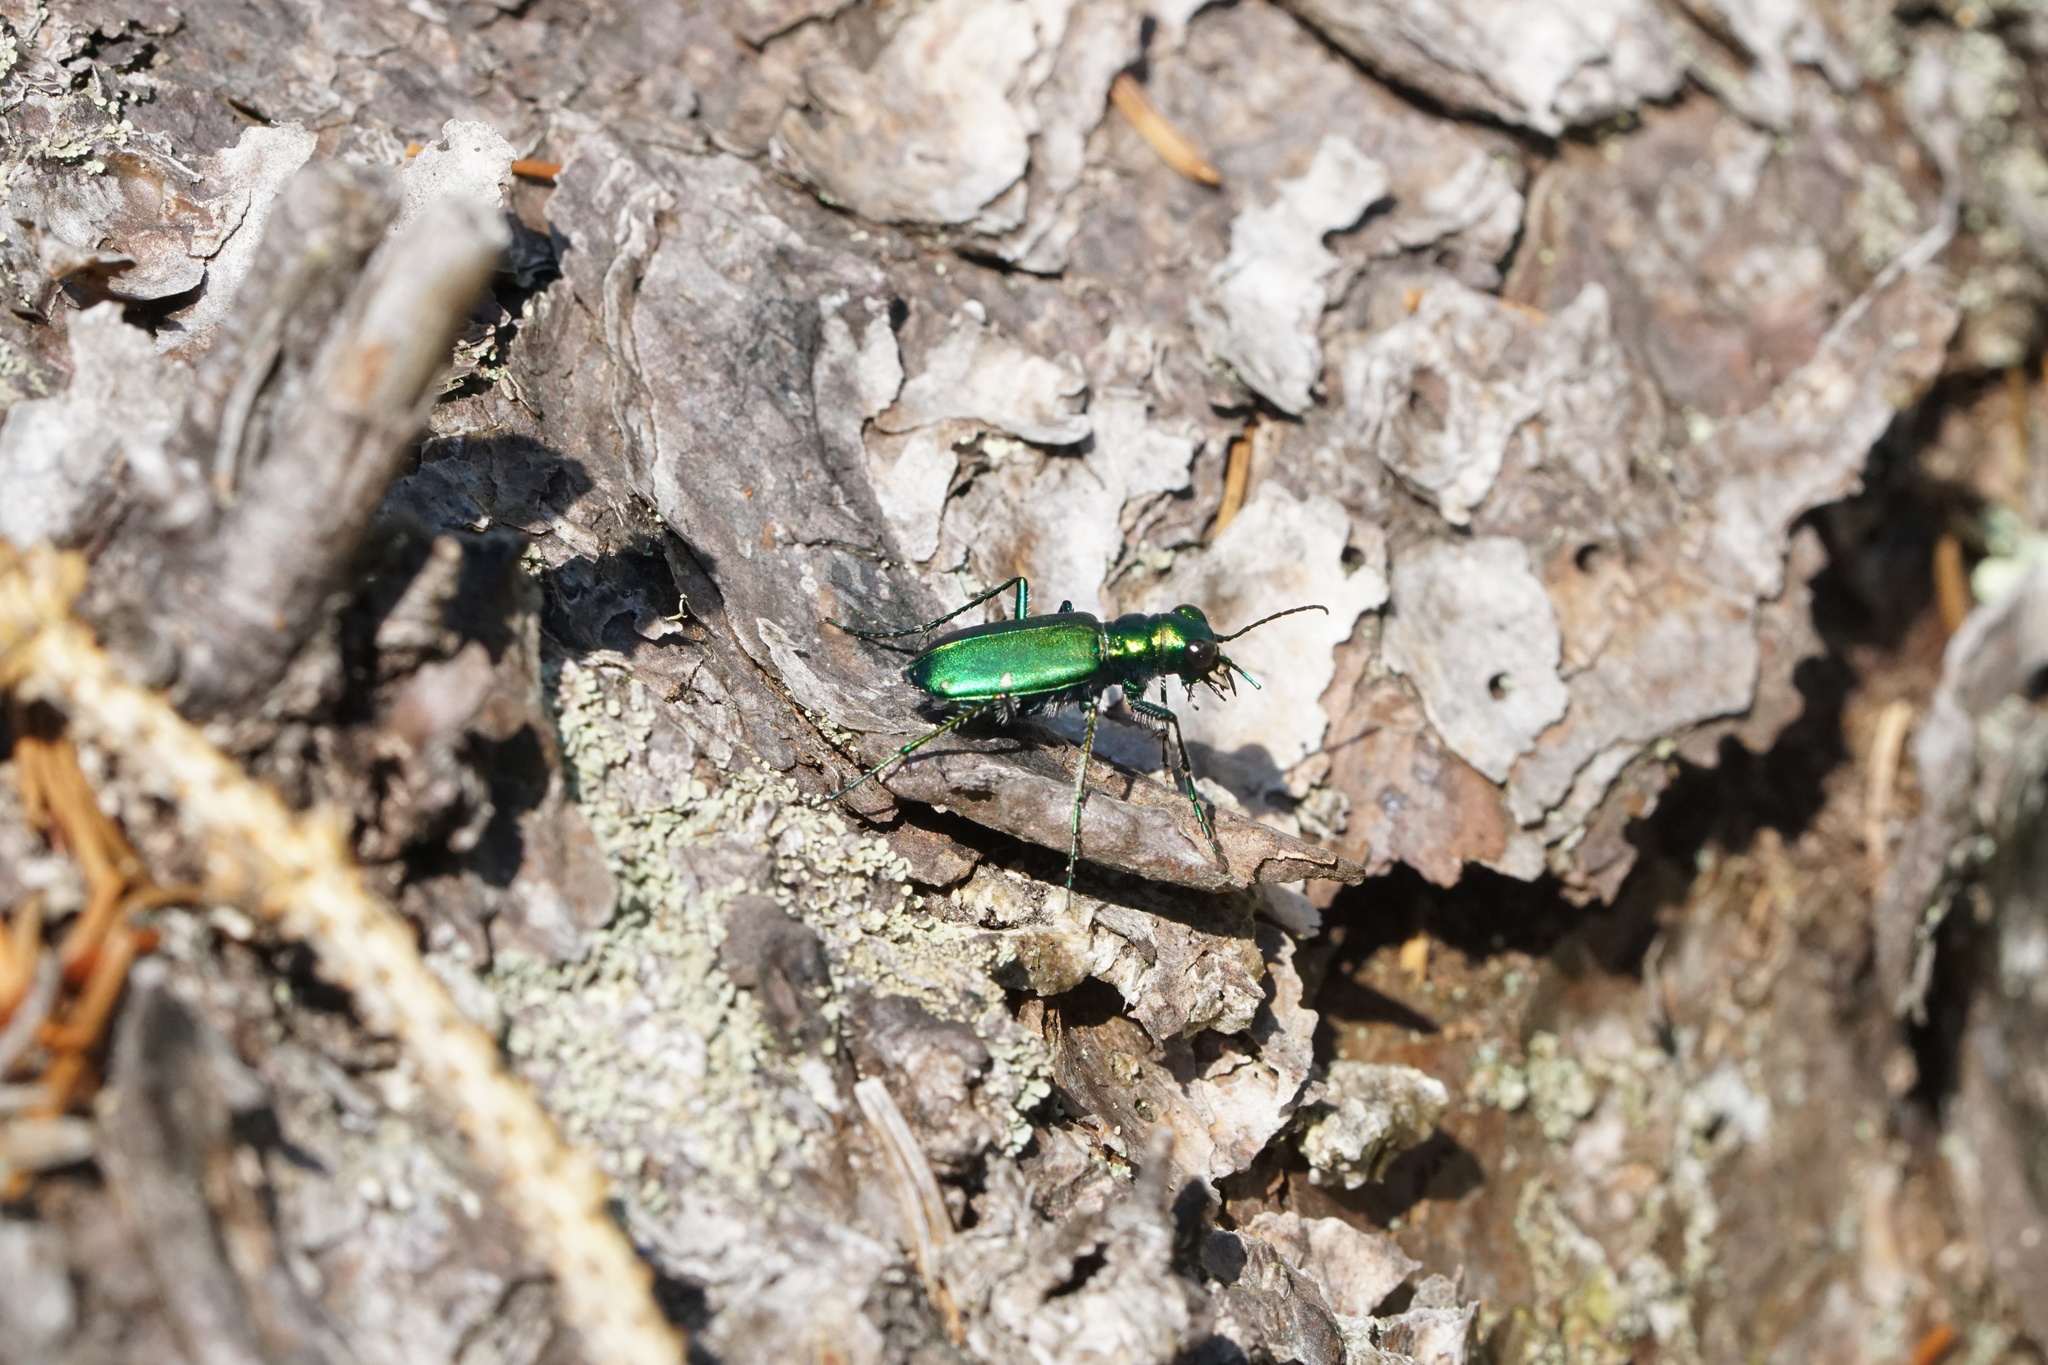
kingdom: Animalia
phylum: Arthropoda
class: Insecta
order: Coleoptera
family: Carabidae
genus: Cicindela
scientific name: Cicindela sexguttata
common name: Six-spotted tiger beetle
